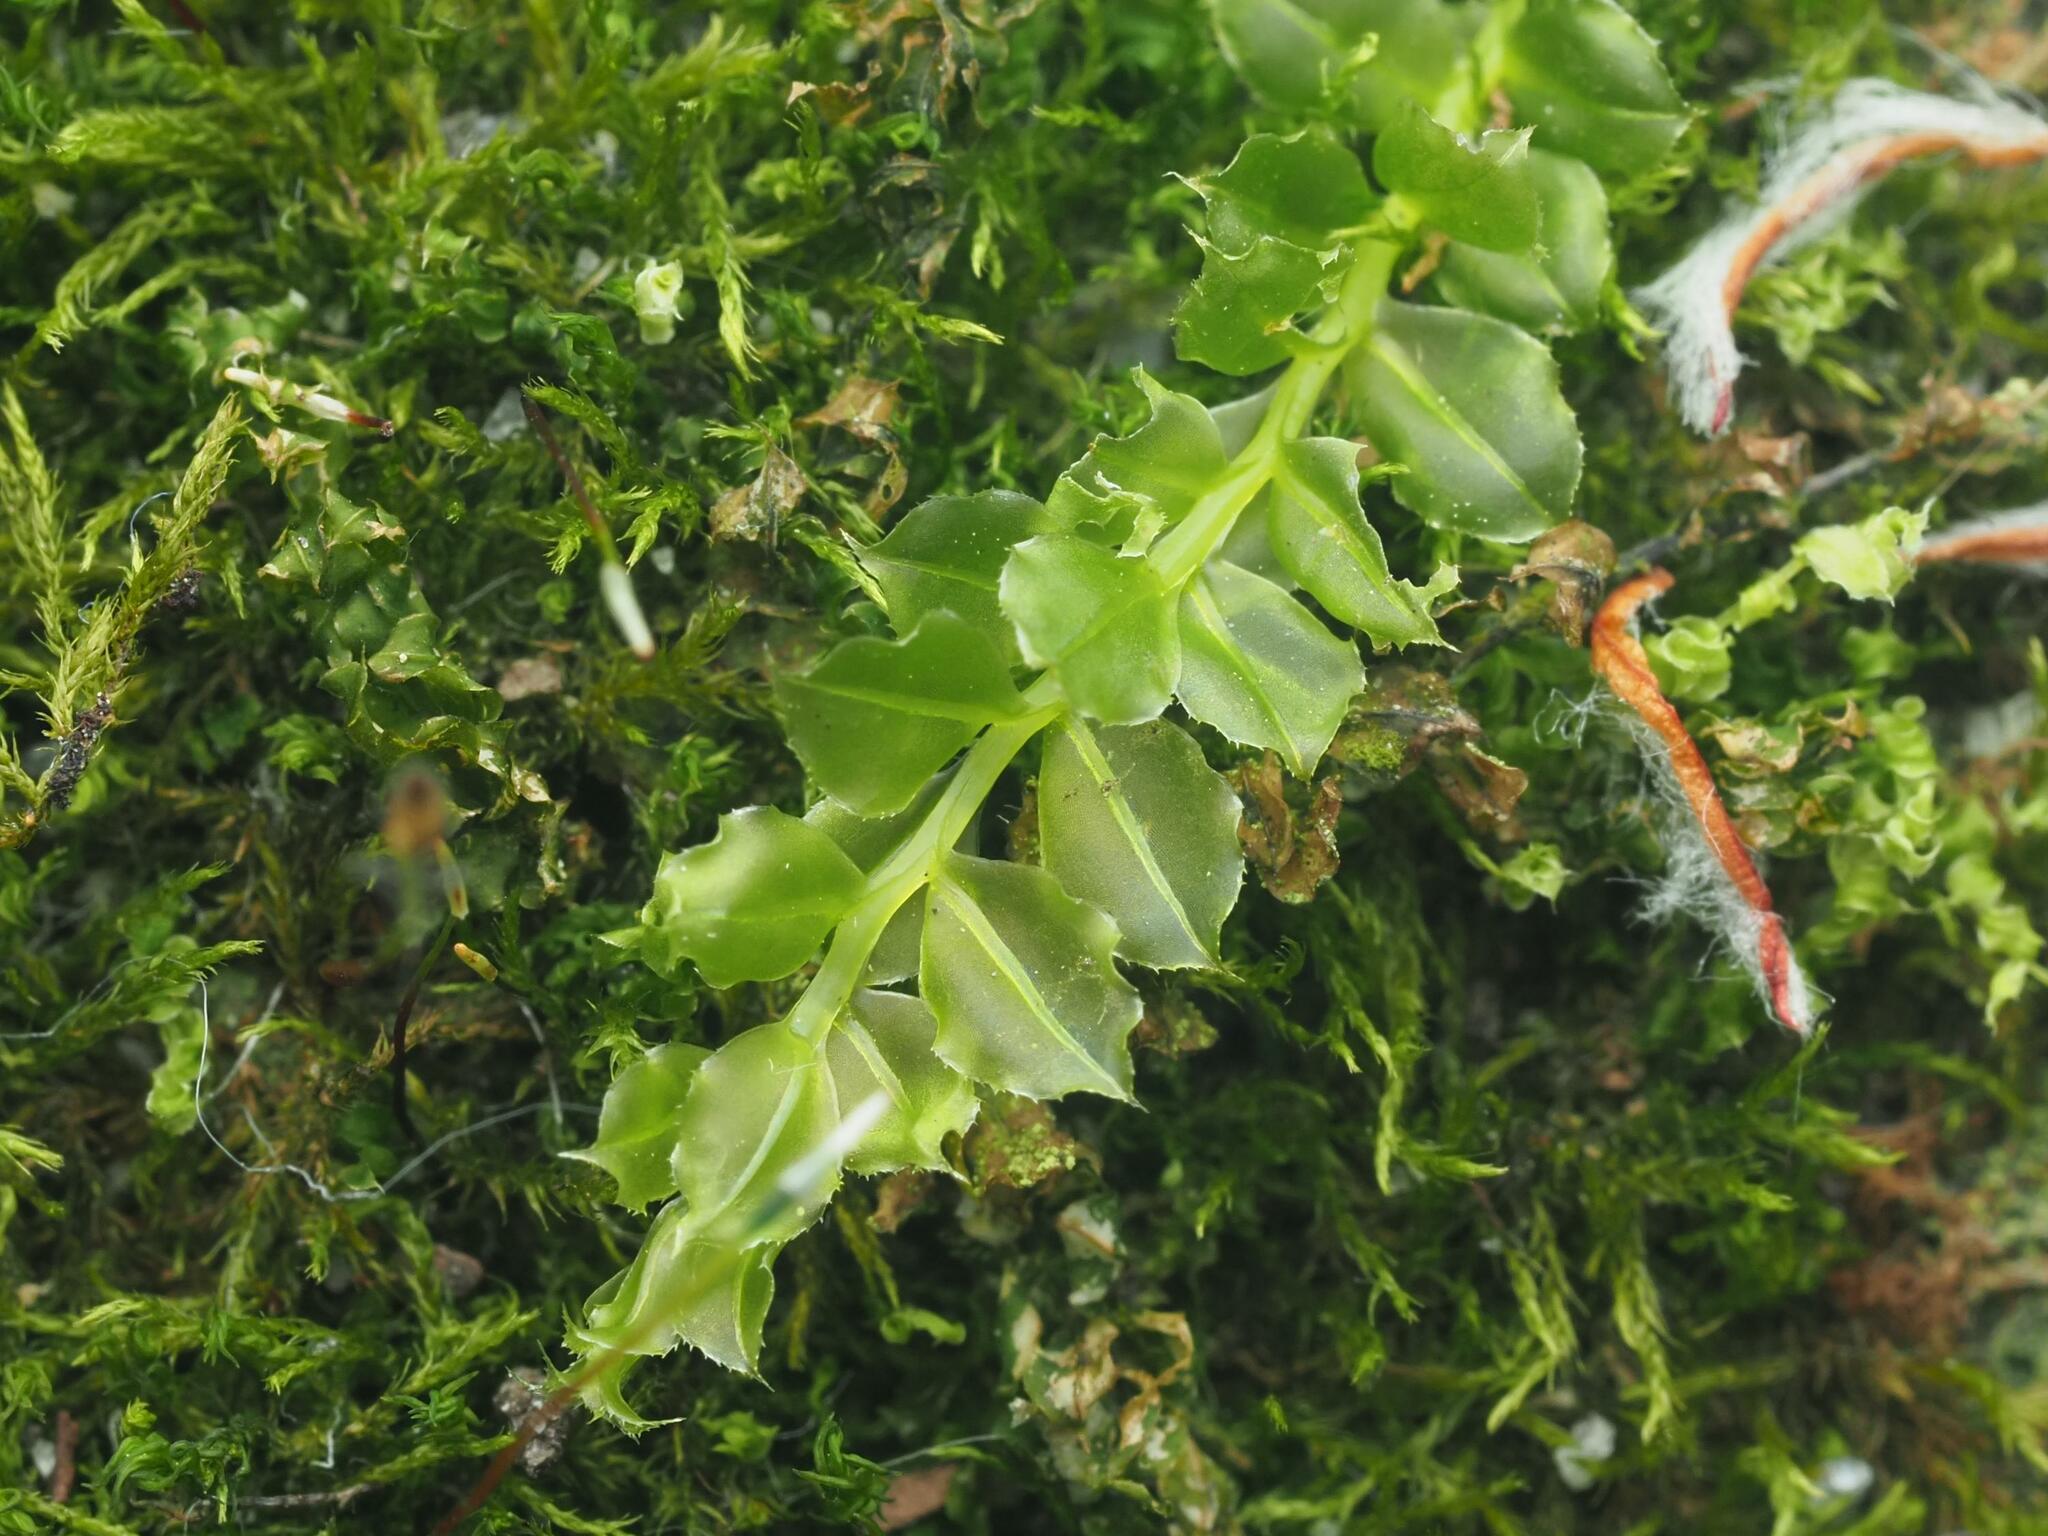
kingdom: Plantae
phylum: Bryophyta
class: Bryopsida
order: Bryales
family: Mniaceae
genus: Plagiomnium
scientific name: Plagiomnium cuspidatum
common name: Woodsy leafy moss
